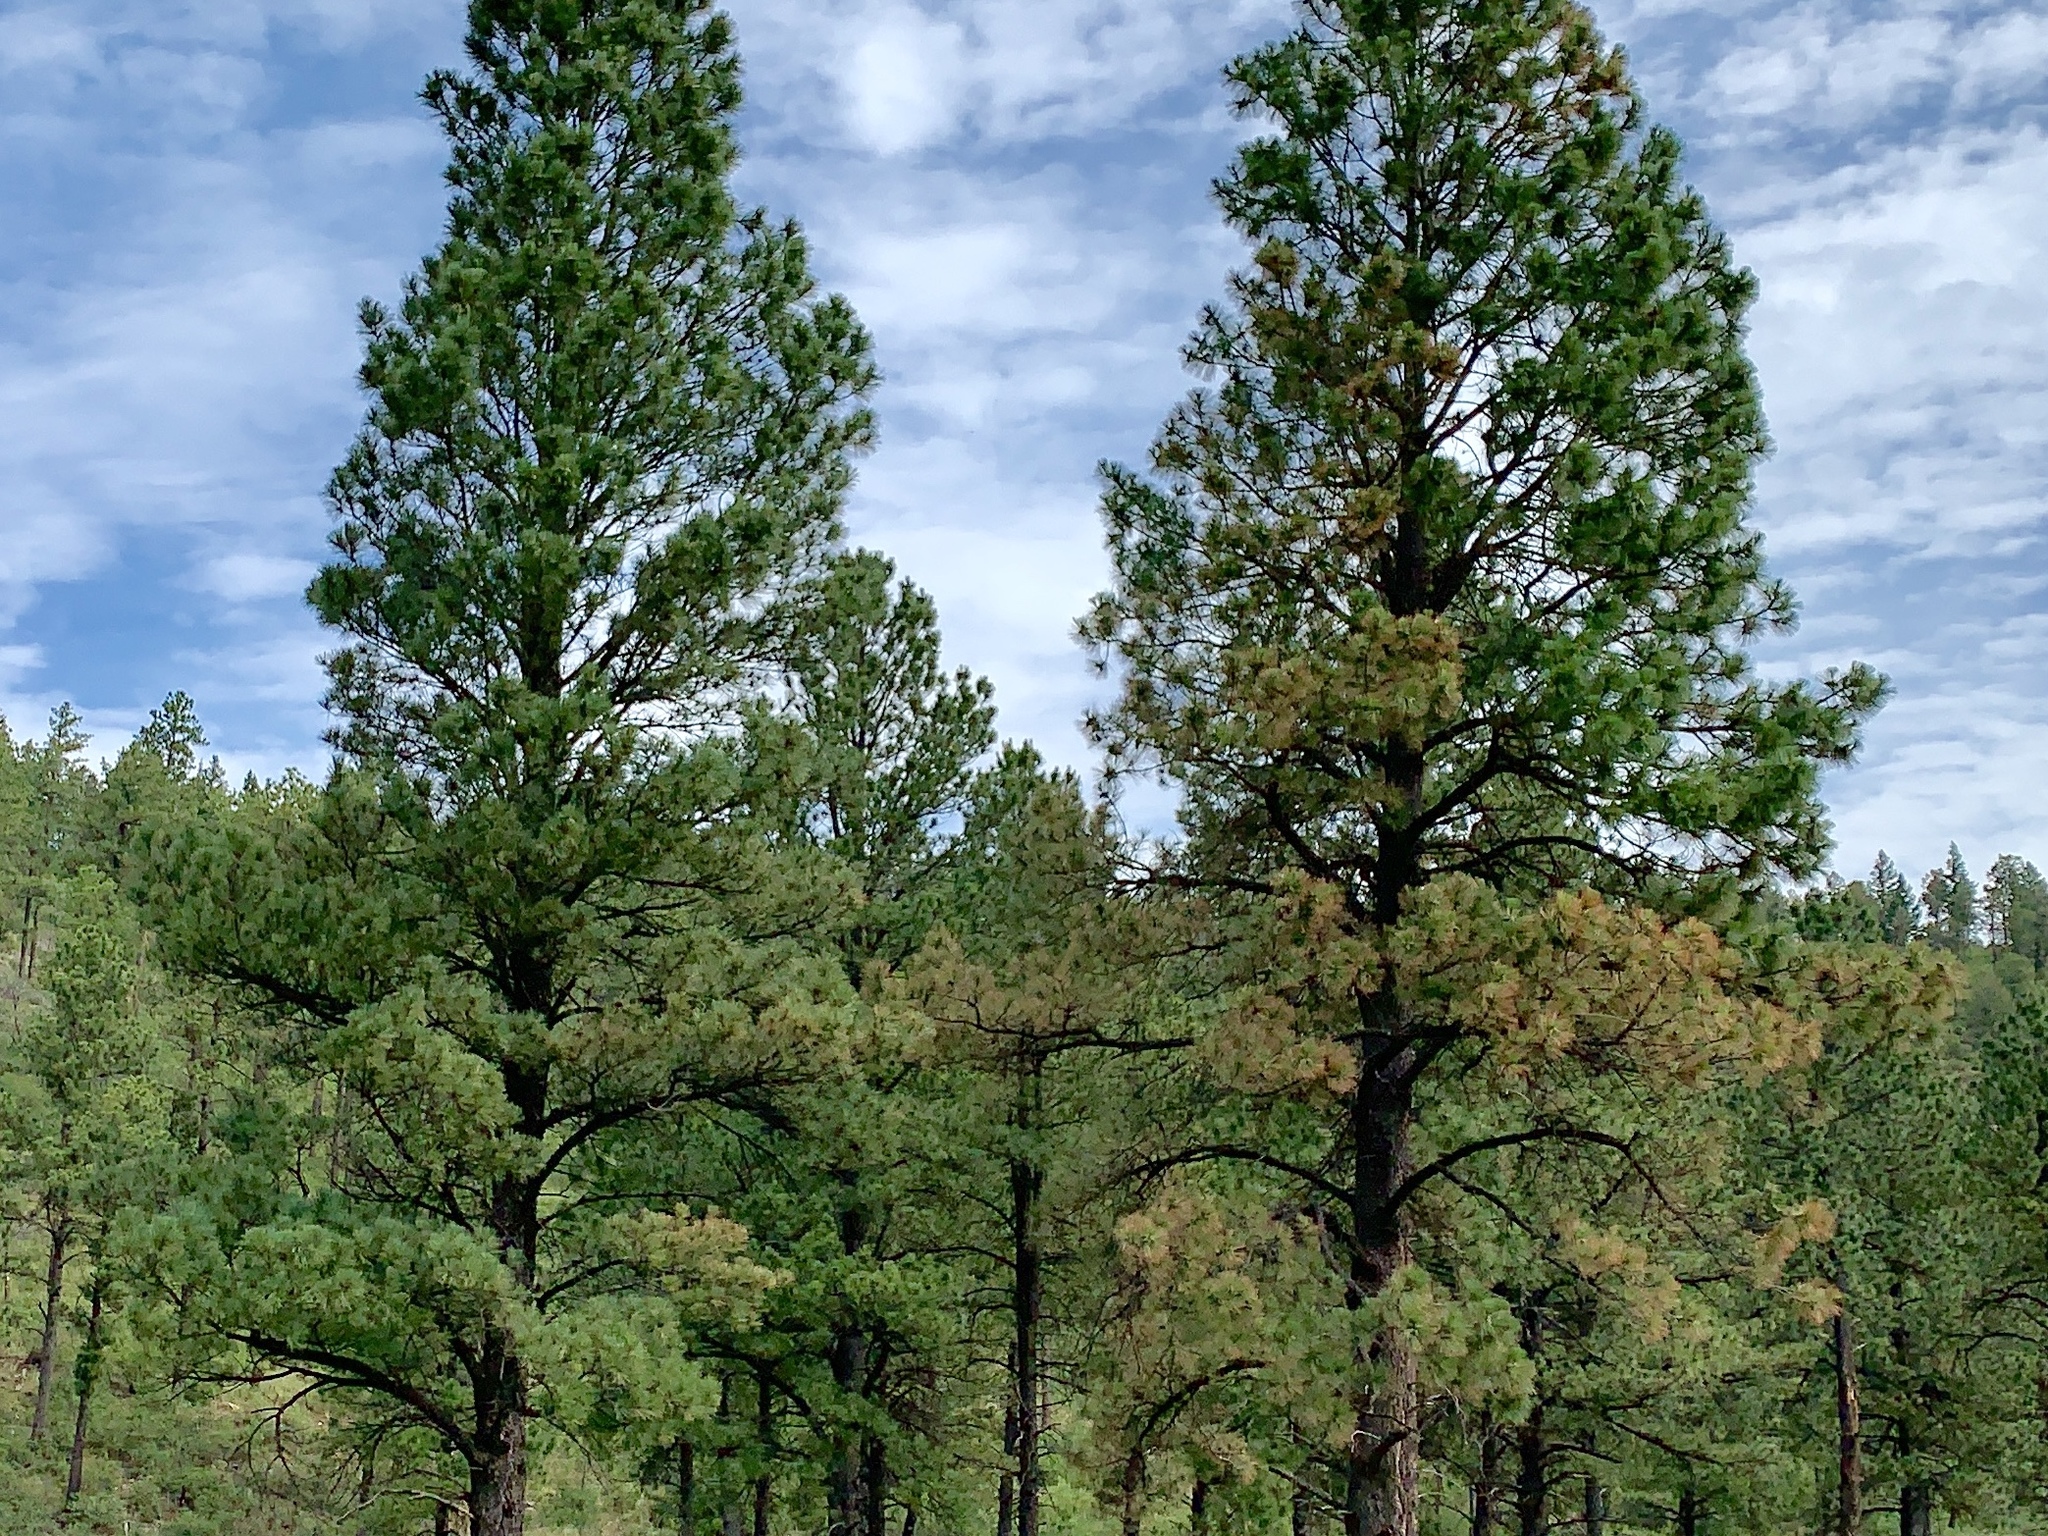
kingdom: Plantae
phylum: Tracheophyta
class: Pinopsida
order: Pinales
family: Pinaceae
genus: Pinus
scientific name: Pinus ponderosa
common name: Western yellow-pine
